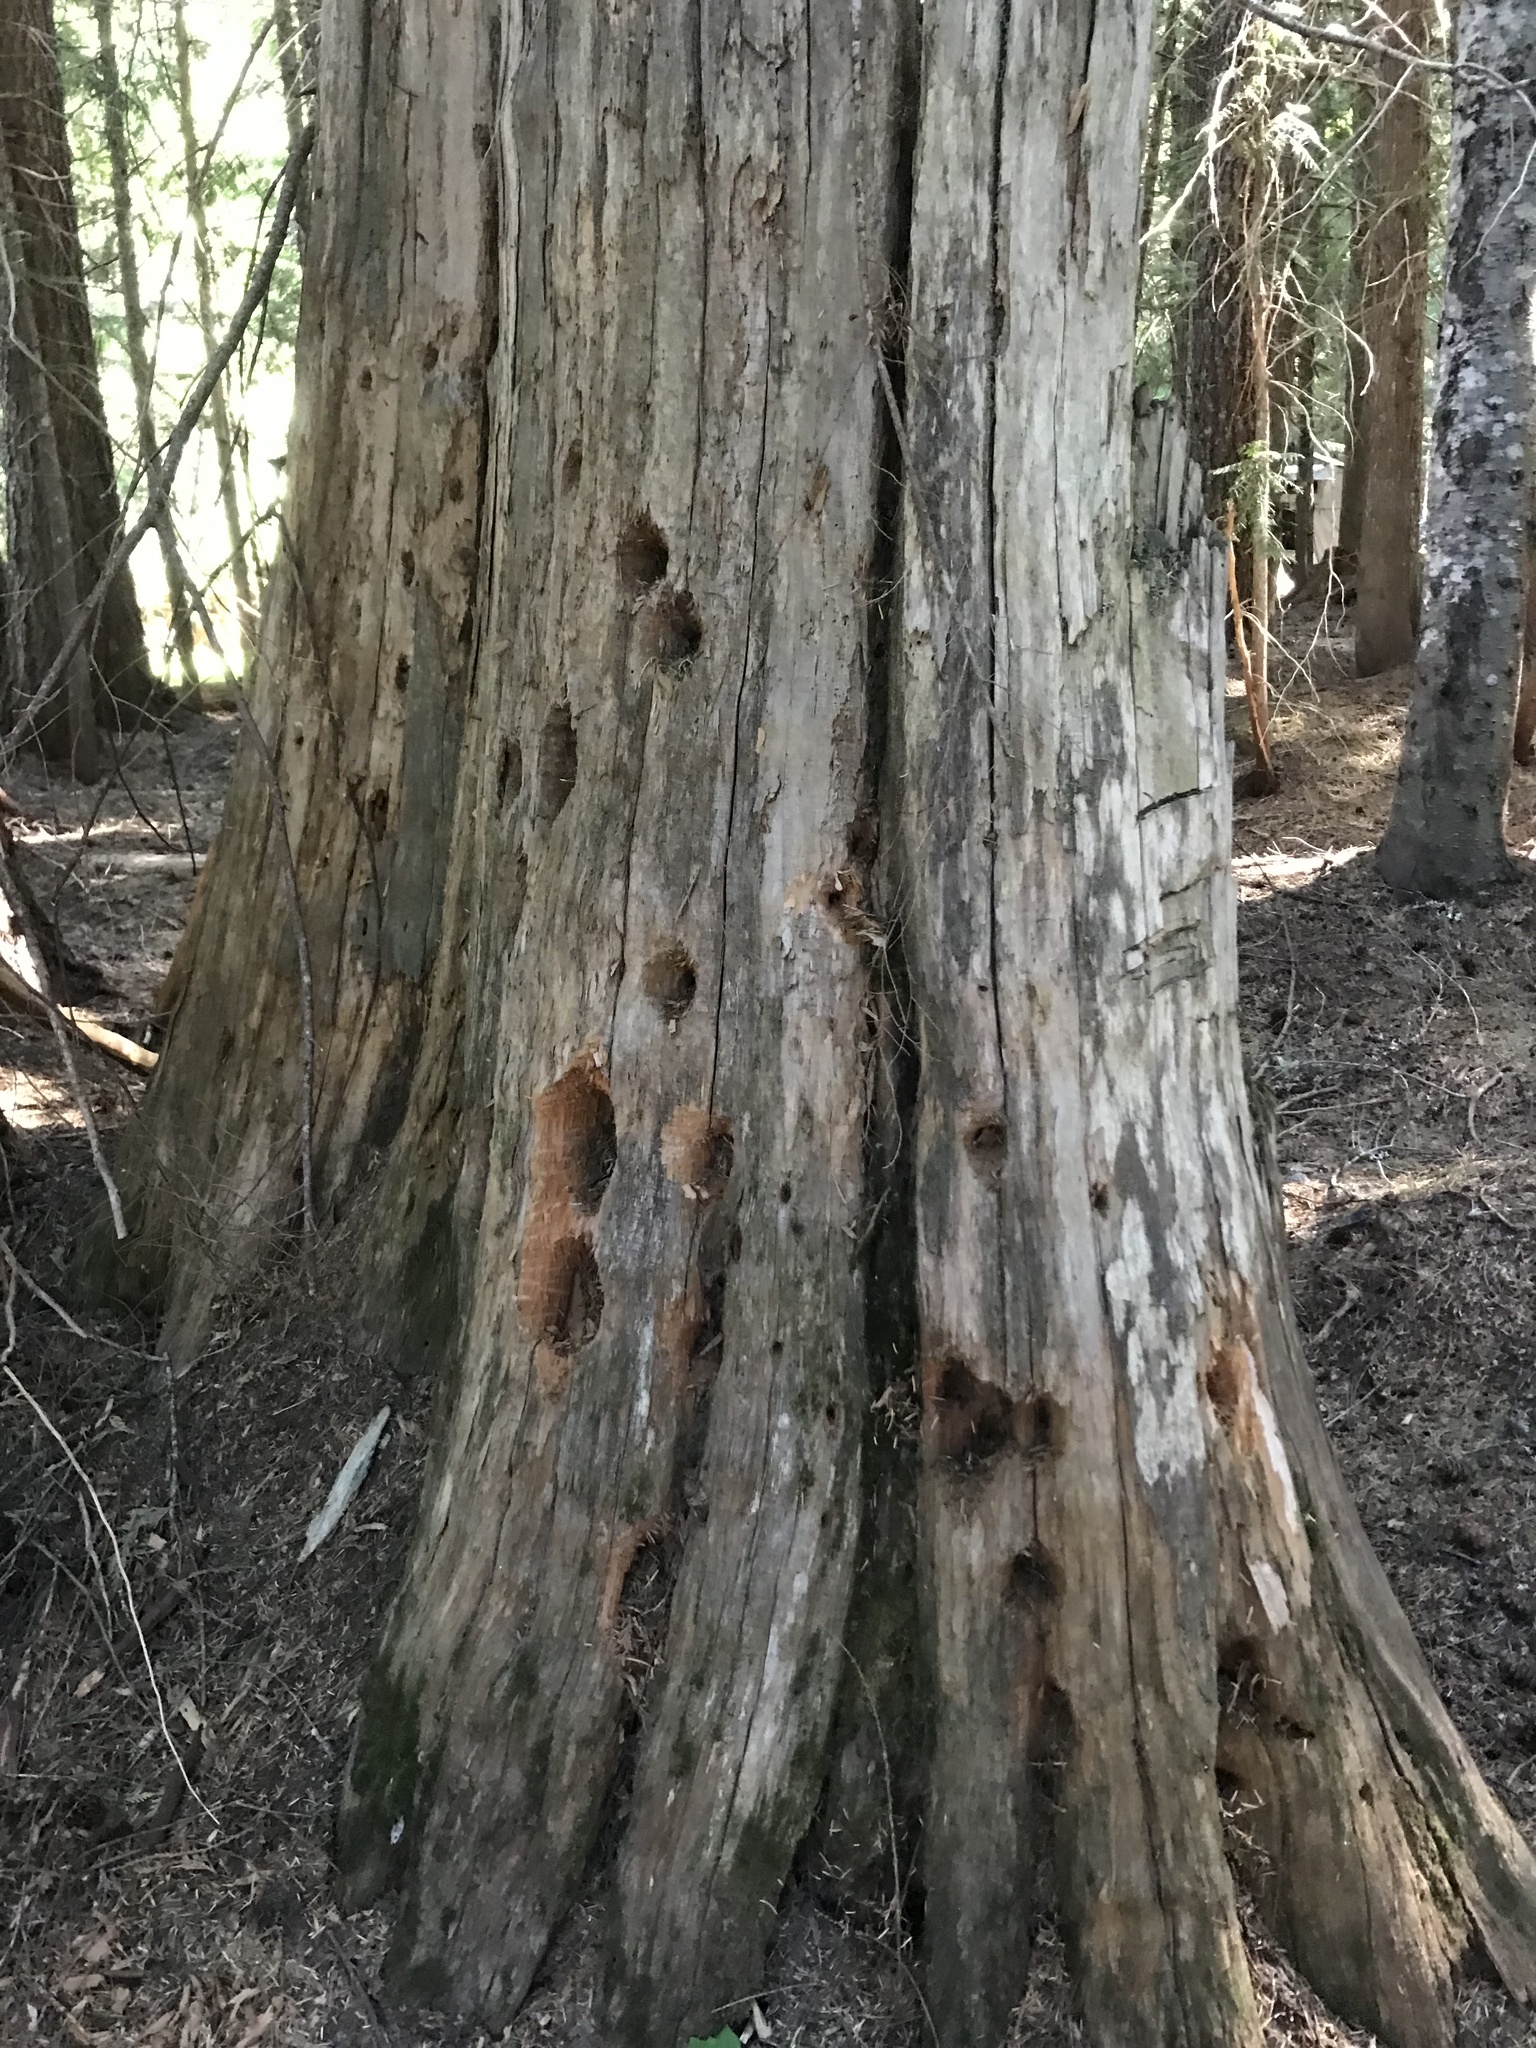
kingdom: Animalia
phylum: Chordata
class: Aves
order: Piciformes
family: Picidae
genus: Dryocopus
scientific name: Dryocopus pileatus
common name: Pileated woodpecker
